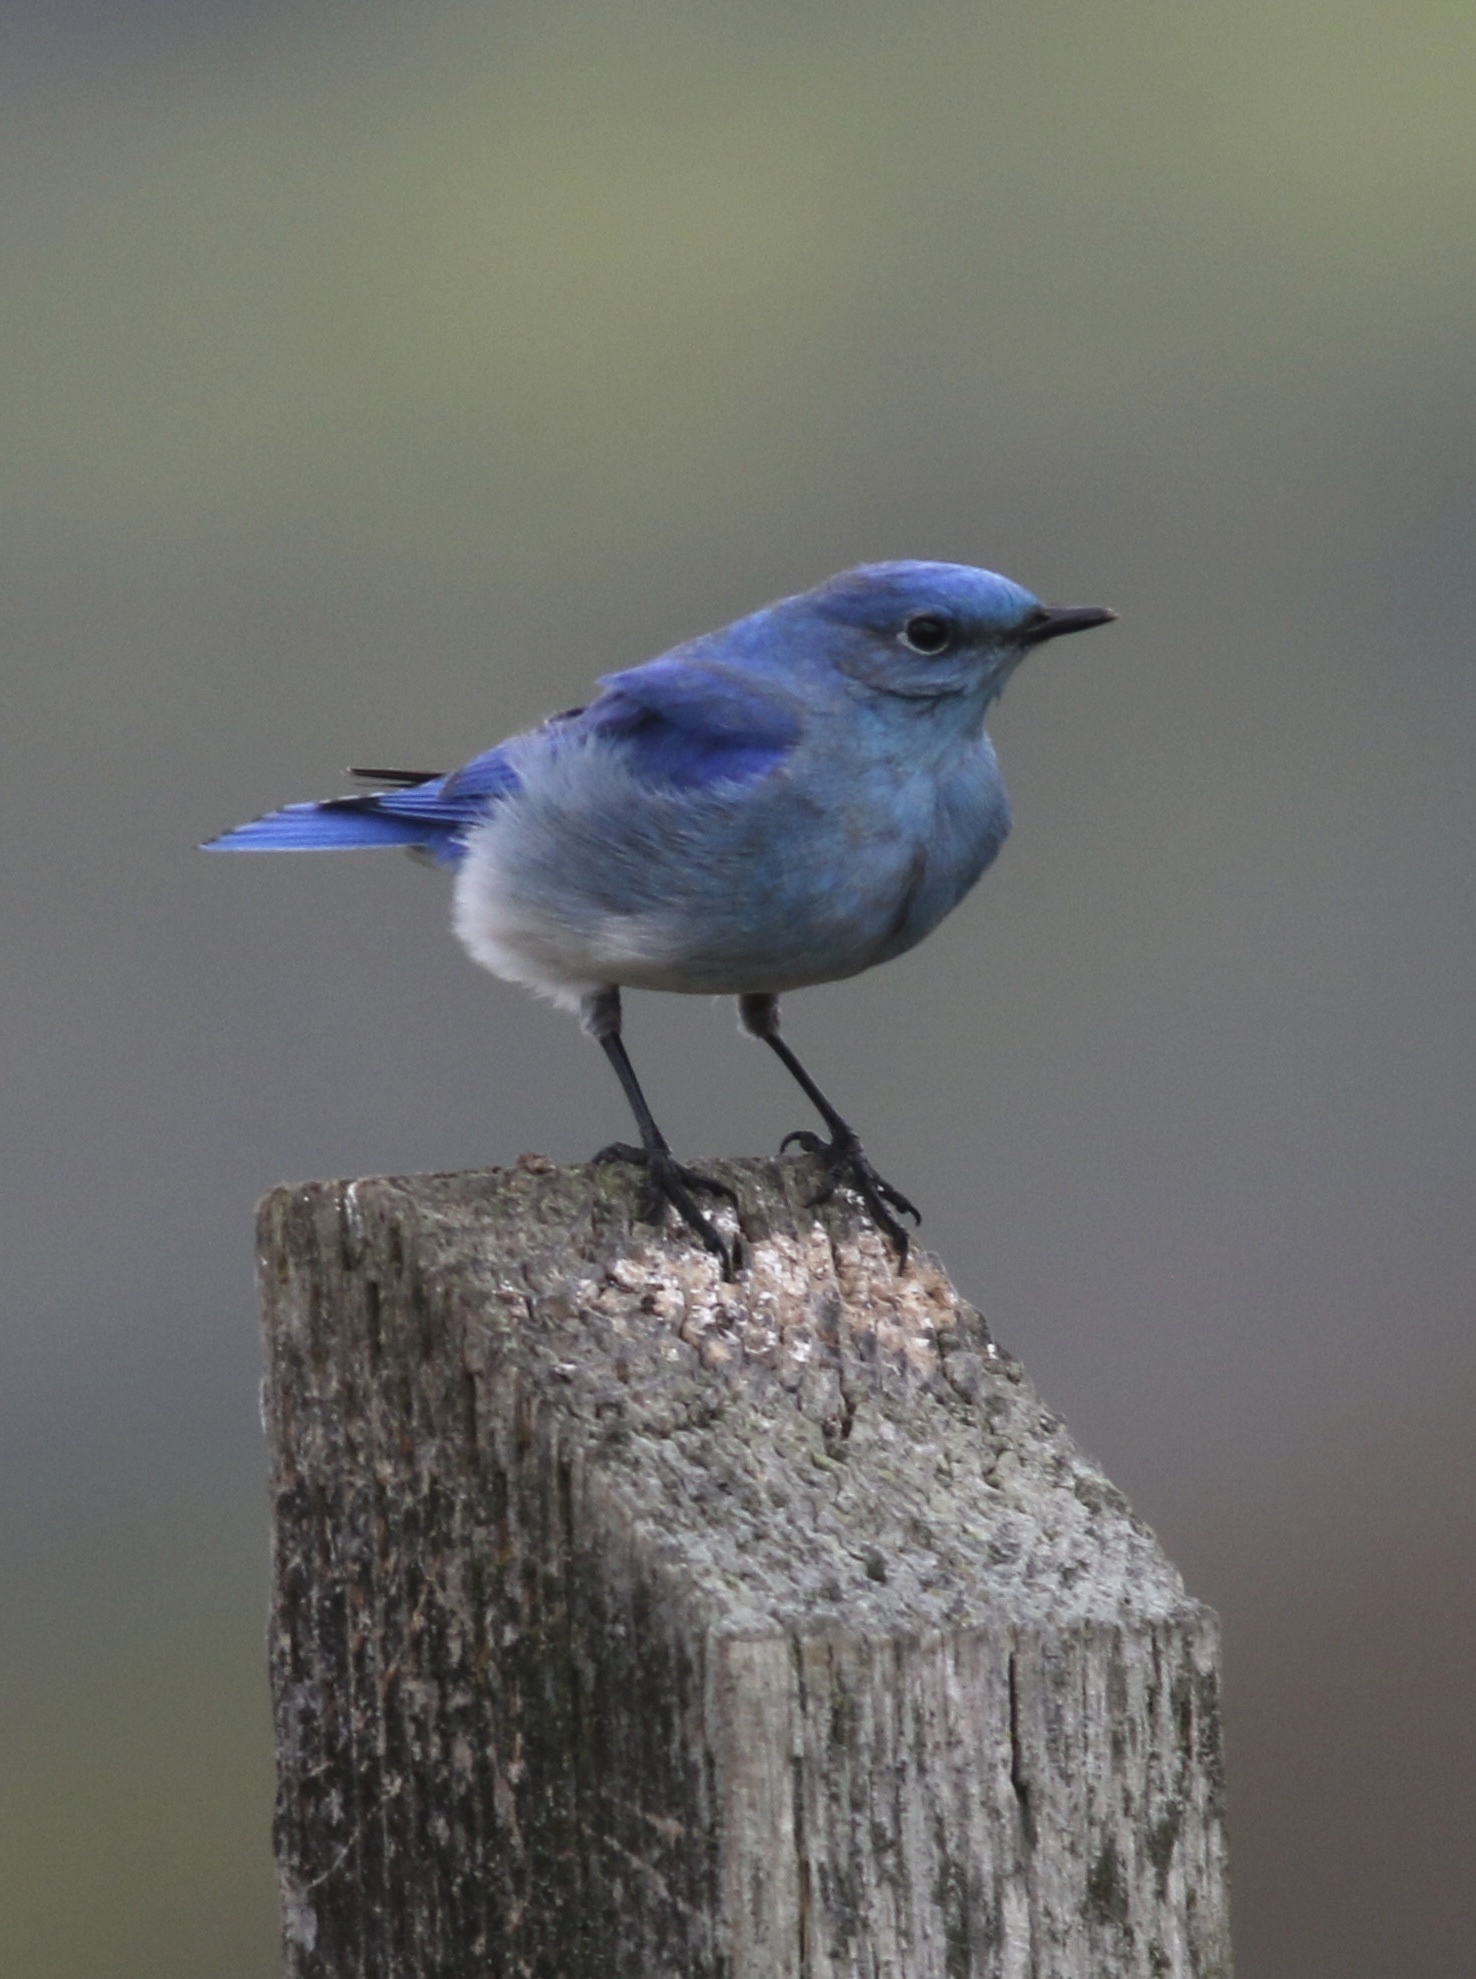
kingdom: Animalia
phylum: Chordata
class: Aves
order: Passeriformes
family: Turdidae
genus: Sialia
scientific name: Sialia currucoides
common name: Mountain bluebird
